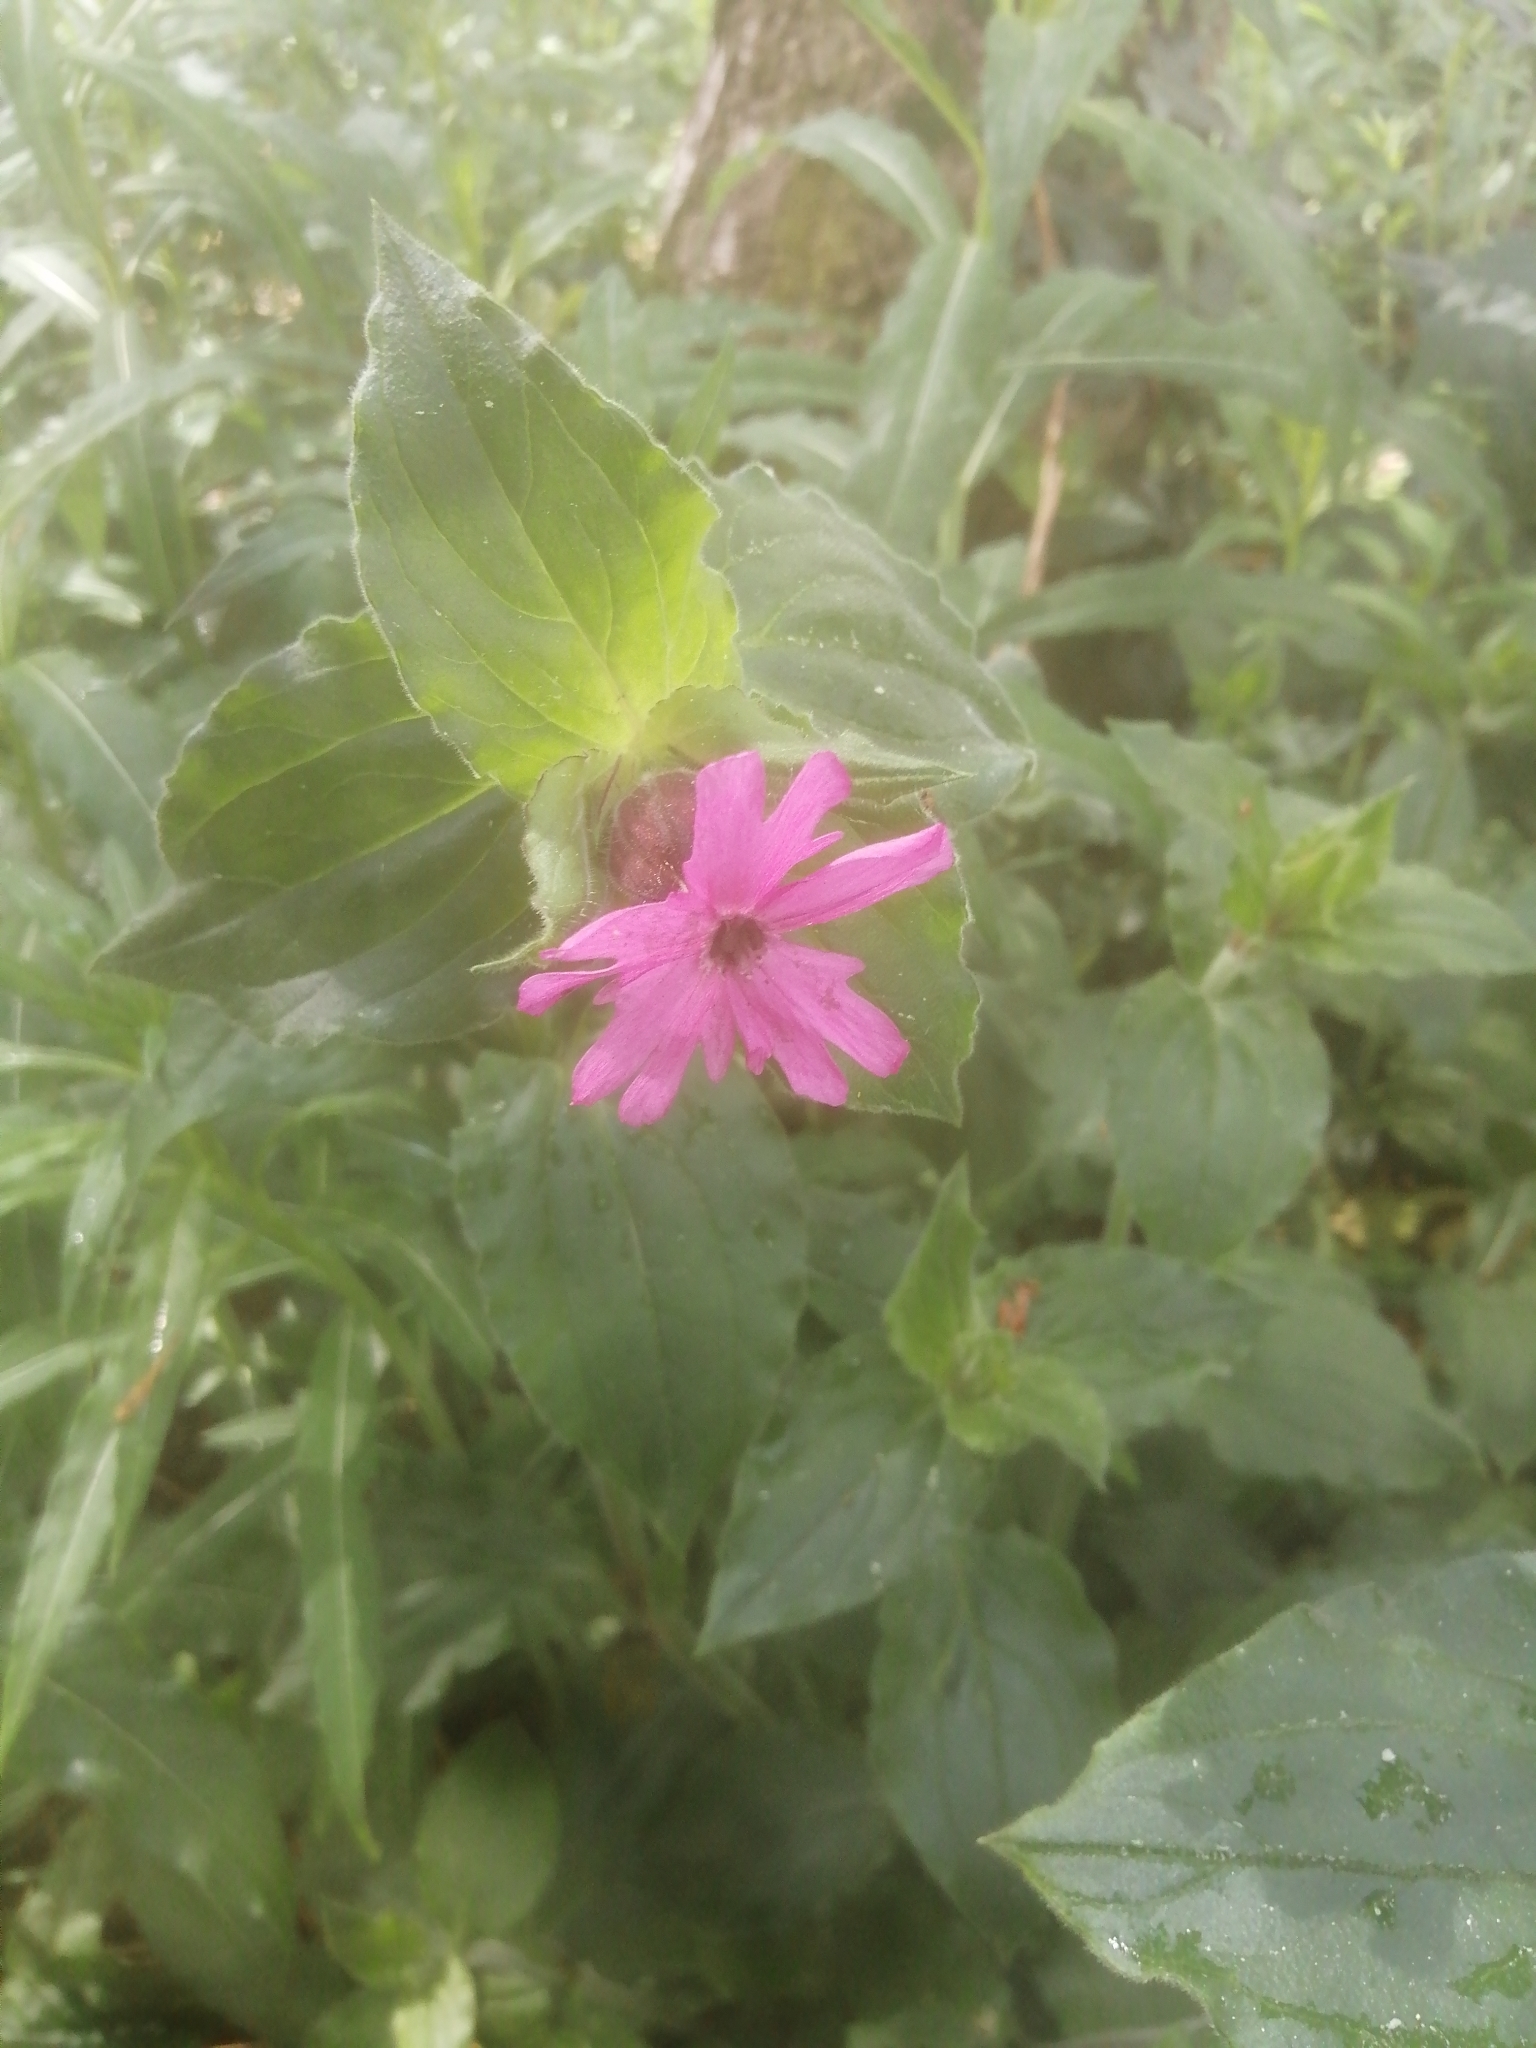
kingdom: Plantae
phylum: Tracheophyta
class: Magnoliopsida
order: Caryophyllales
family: Caryophyllaceae
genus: Silene
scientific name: Silene dioica
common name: Red campion
